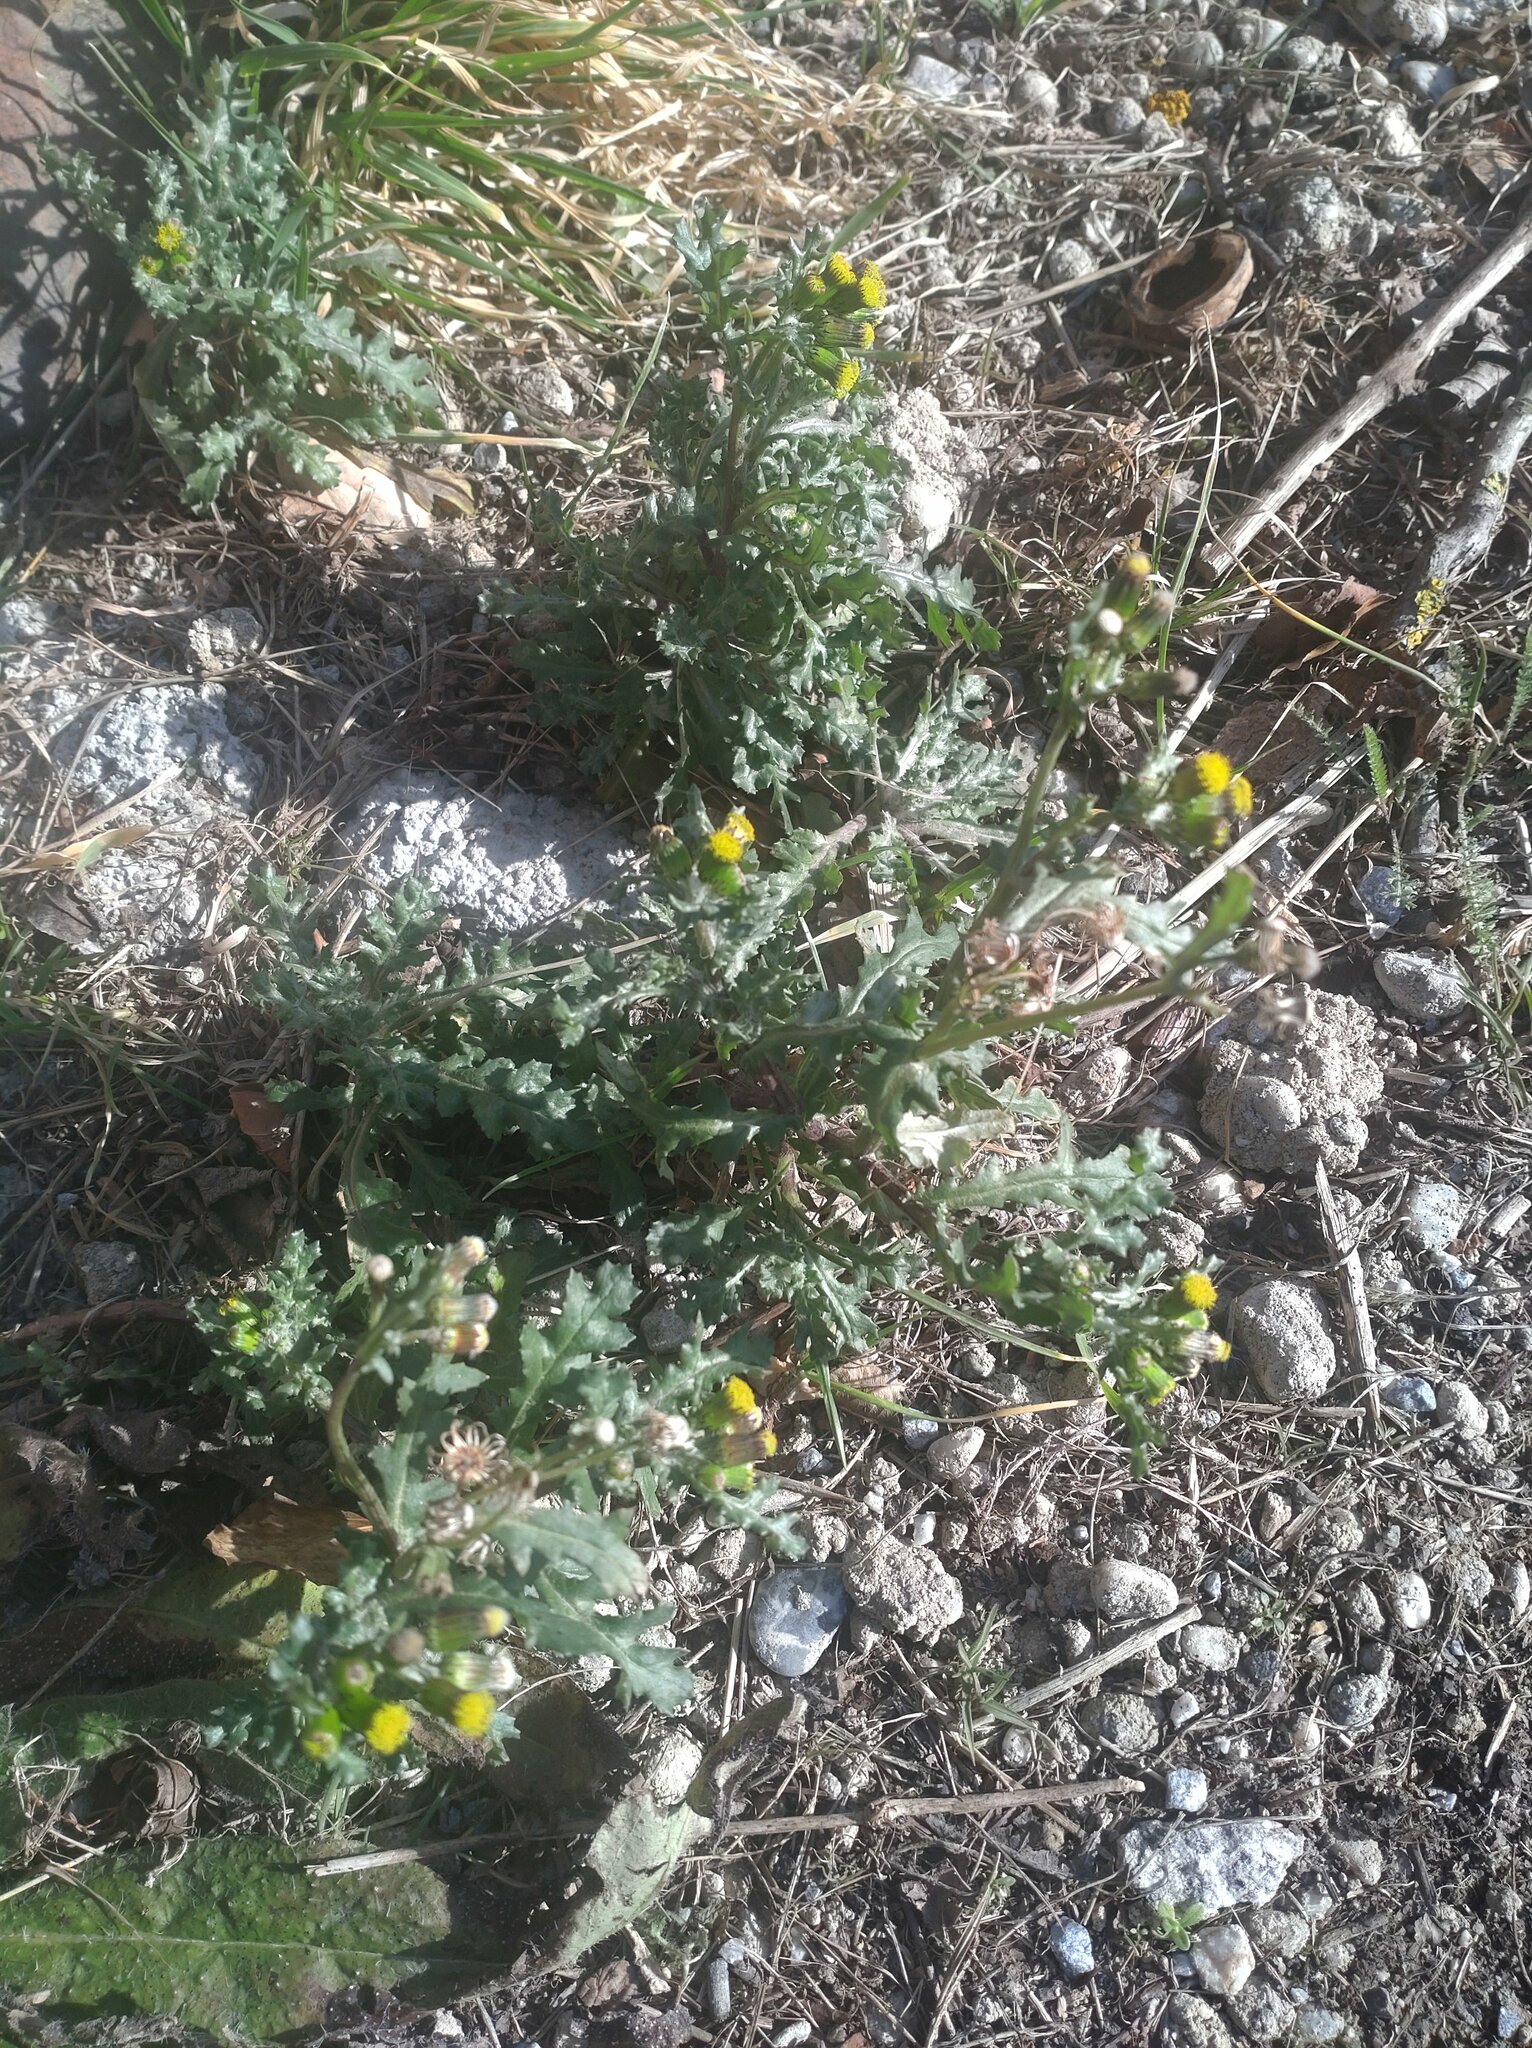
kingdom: Plantae
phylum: Tracheophyta
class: Magnoliopsida
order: Asterales
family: Asteraceae
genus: Senecio
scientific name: Senecio vulgaris
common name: Old-man-in-the-spring
